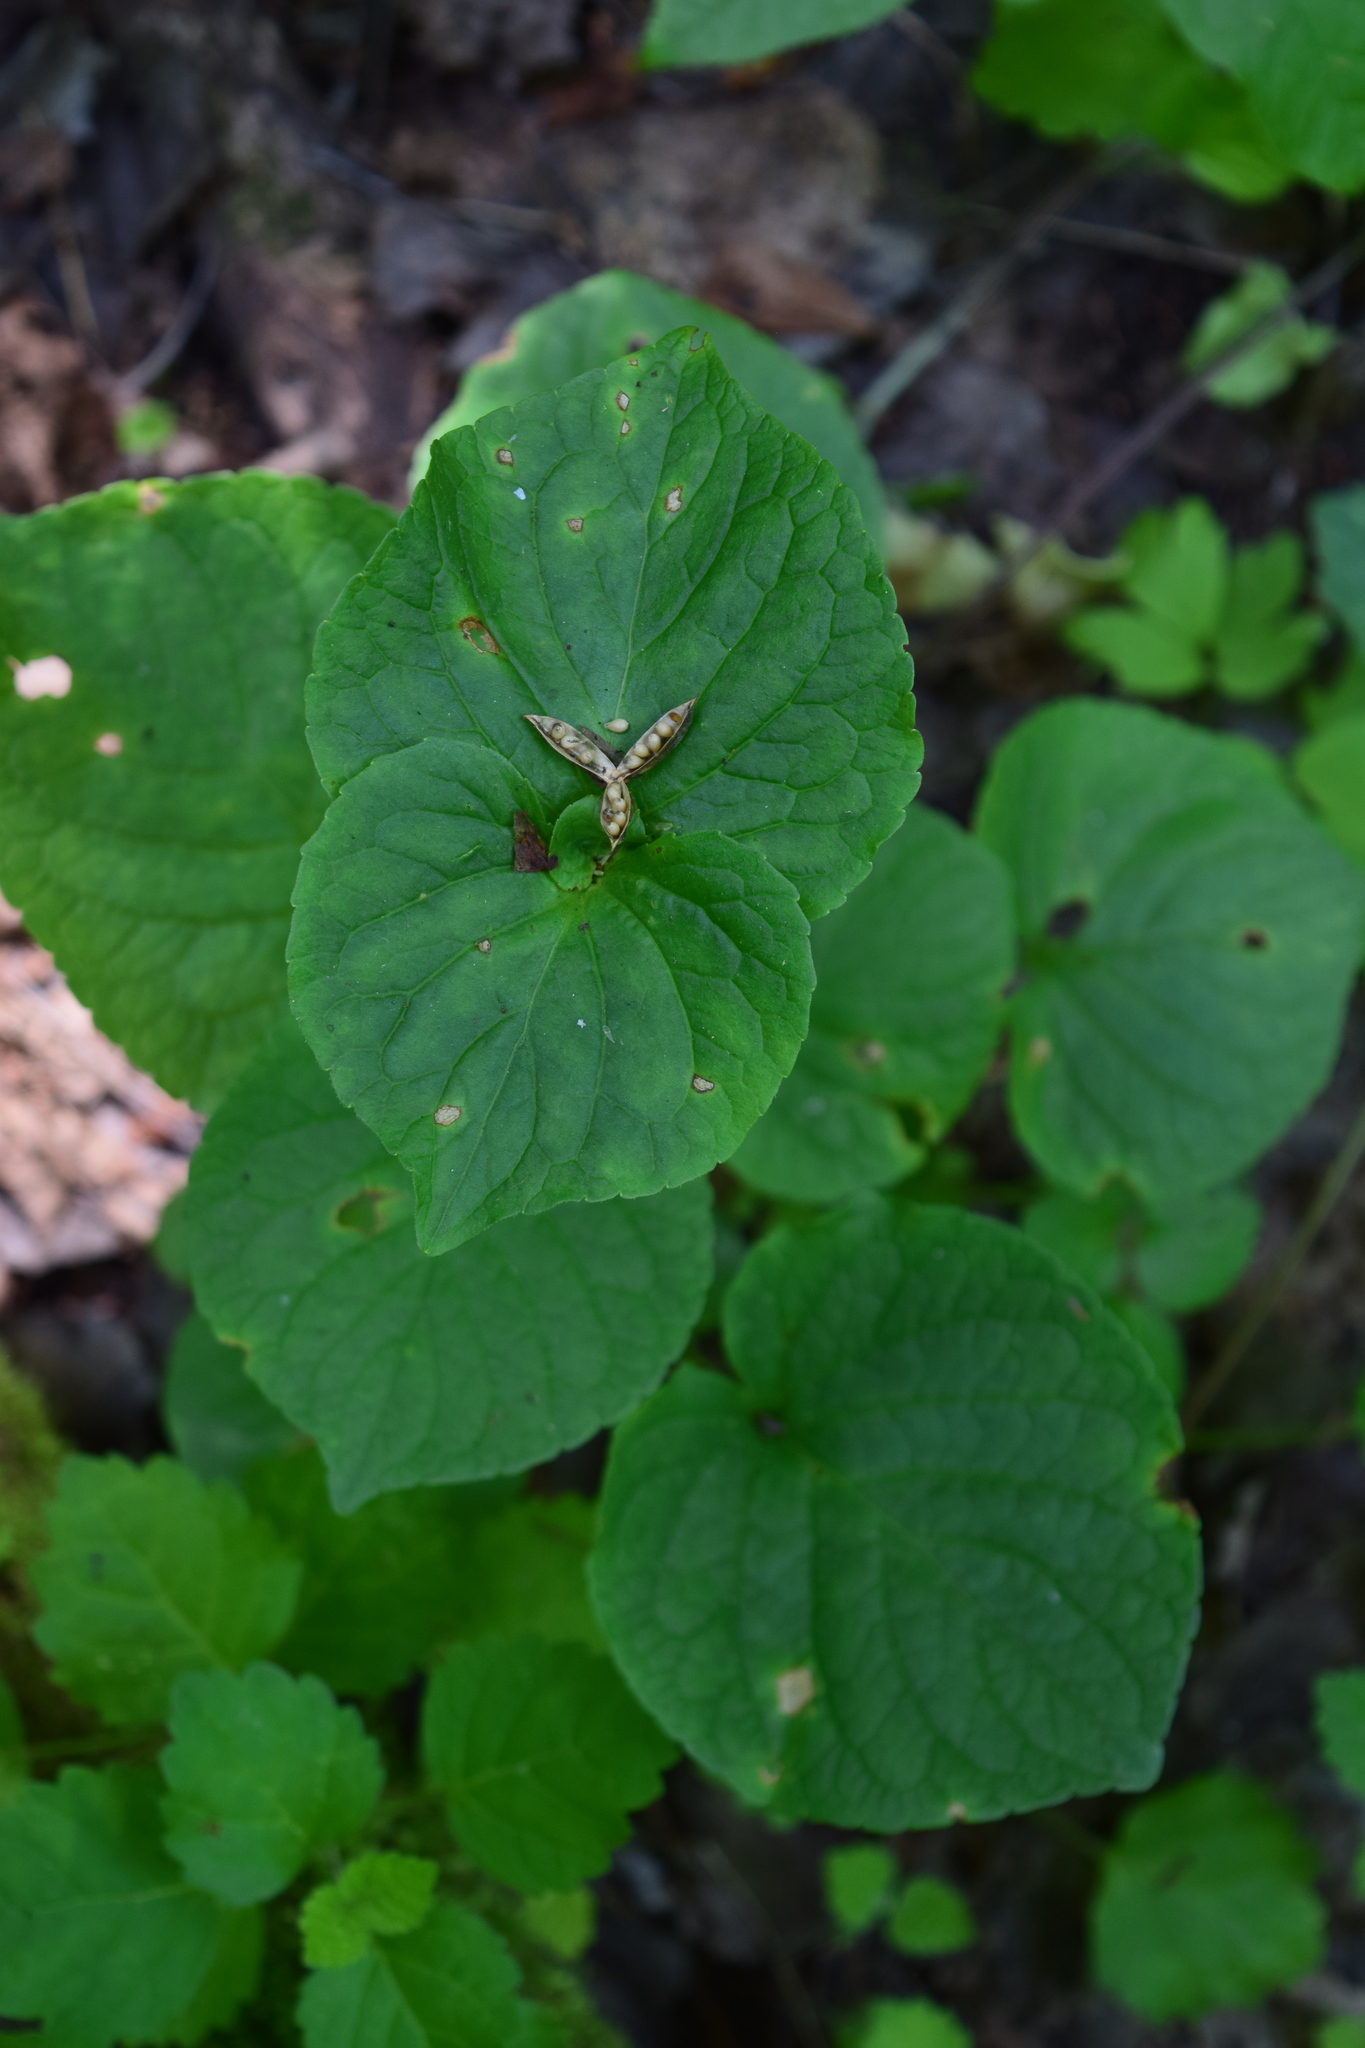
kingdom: Plantae
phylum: Tracheophyta
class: Magnoliopsida
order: Malpighiales
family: Violaceae
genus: Viola
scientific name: Viola mirabilis
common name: Wonder violet
